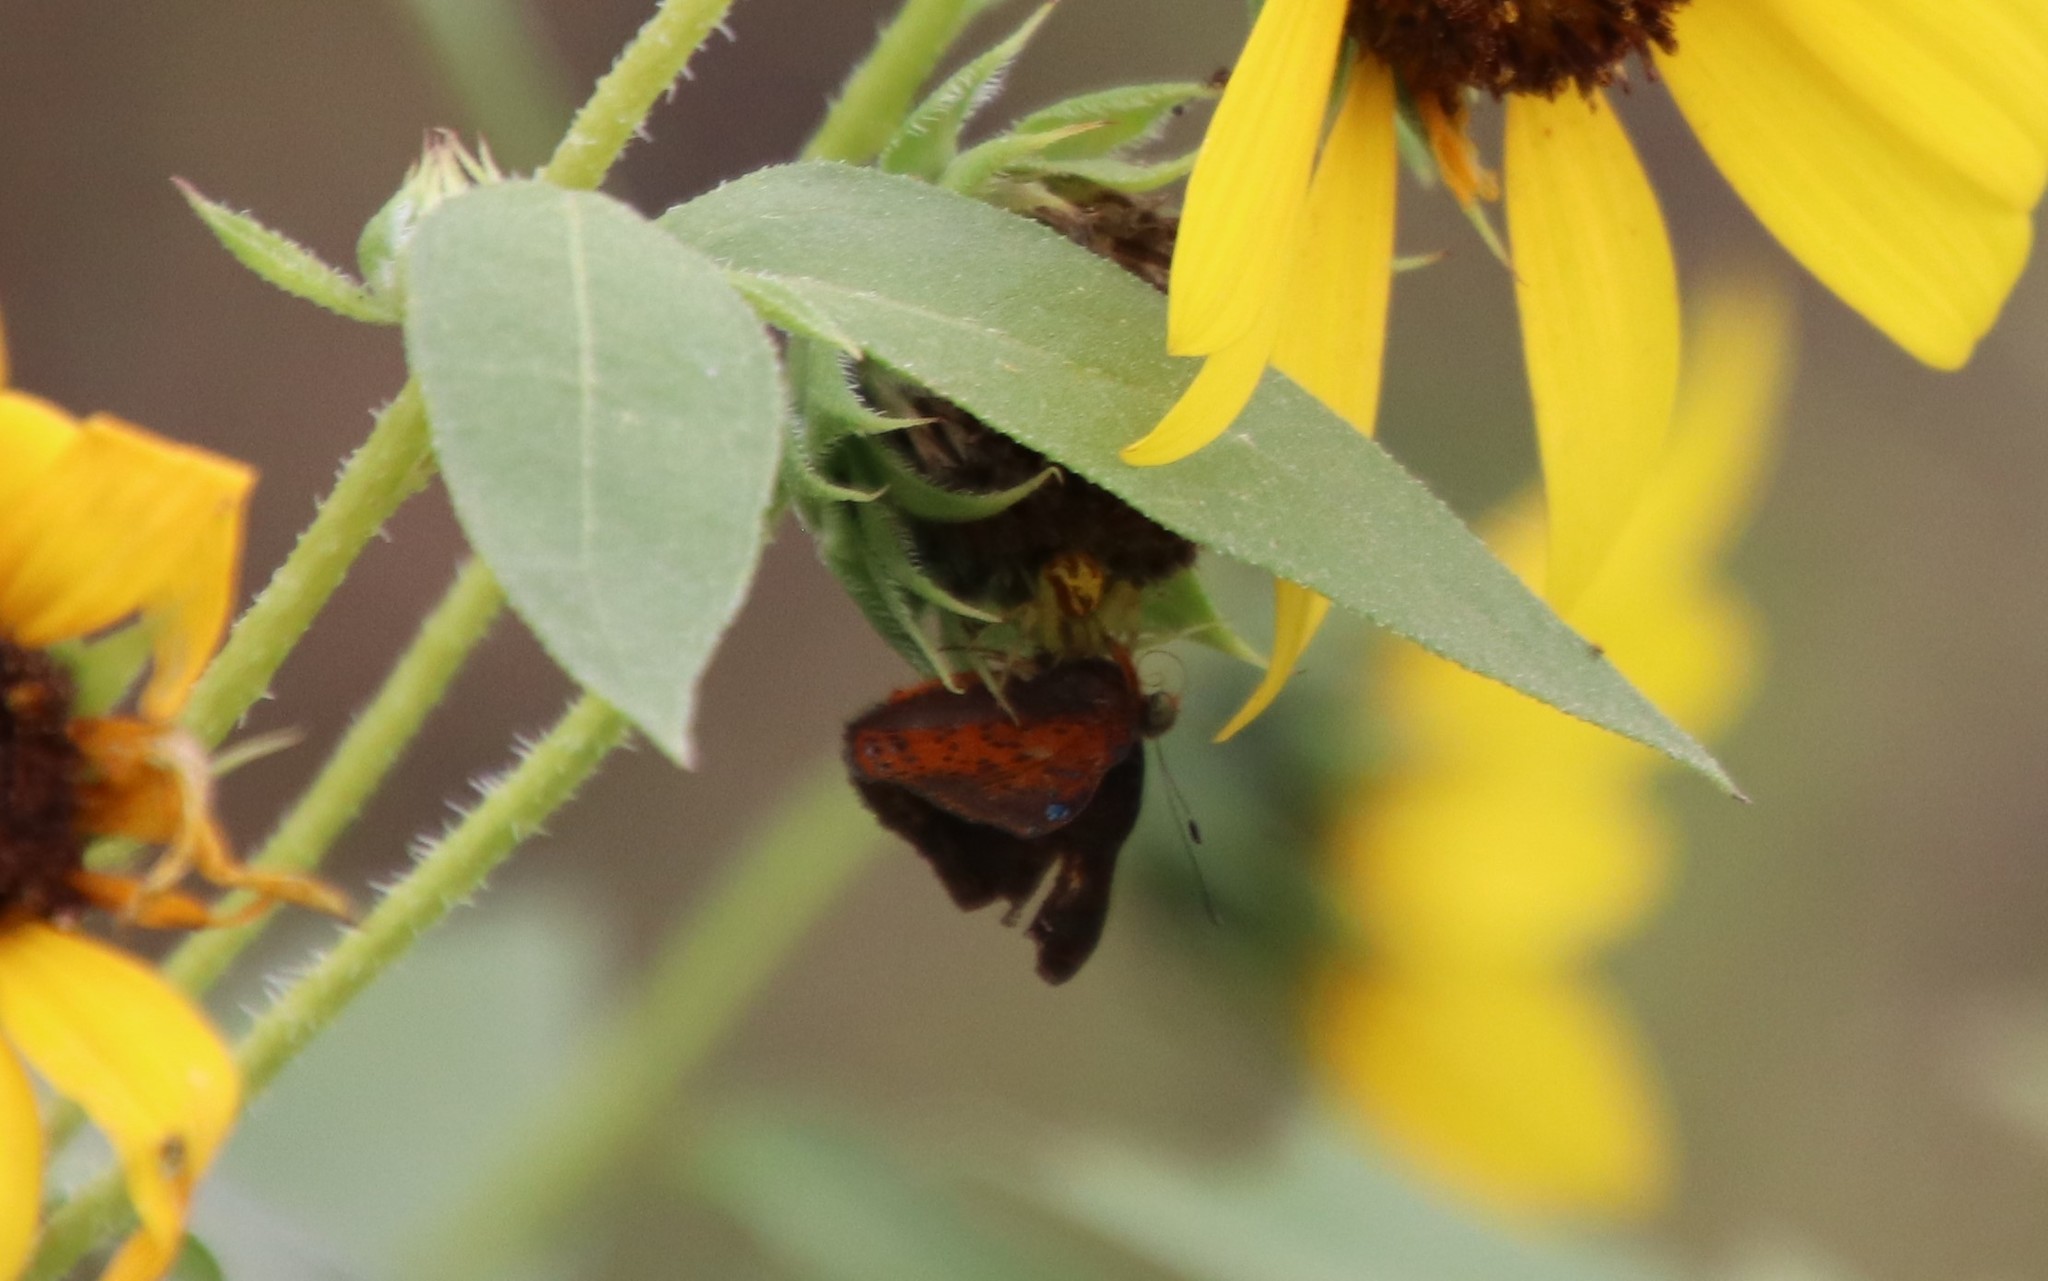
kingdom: Animalia
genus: Caria
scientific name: Caria ino
